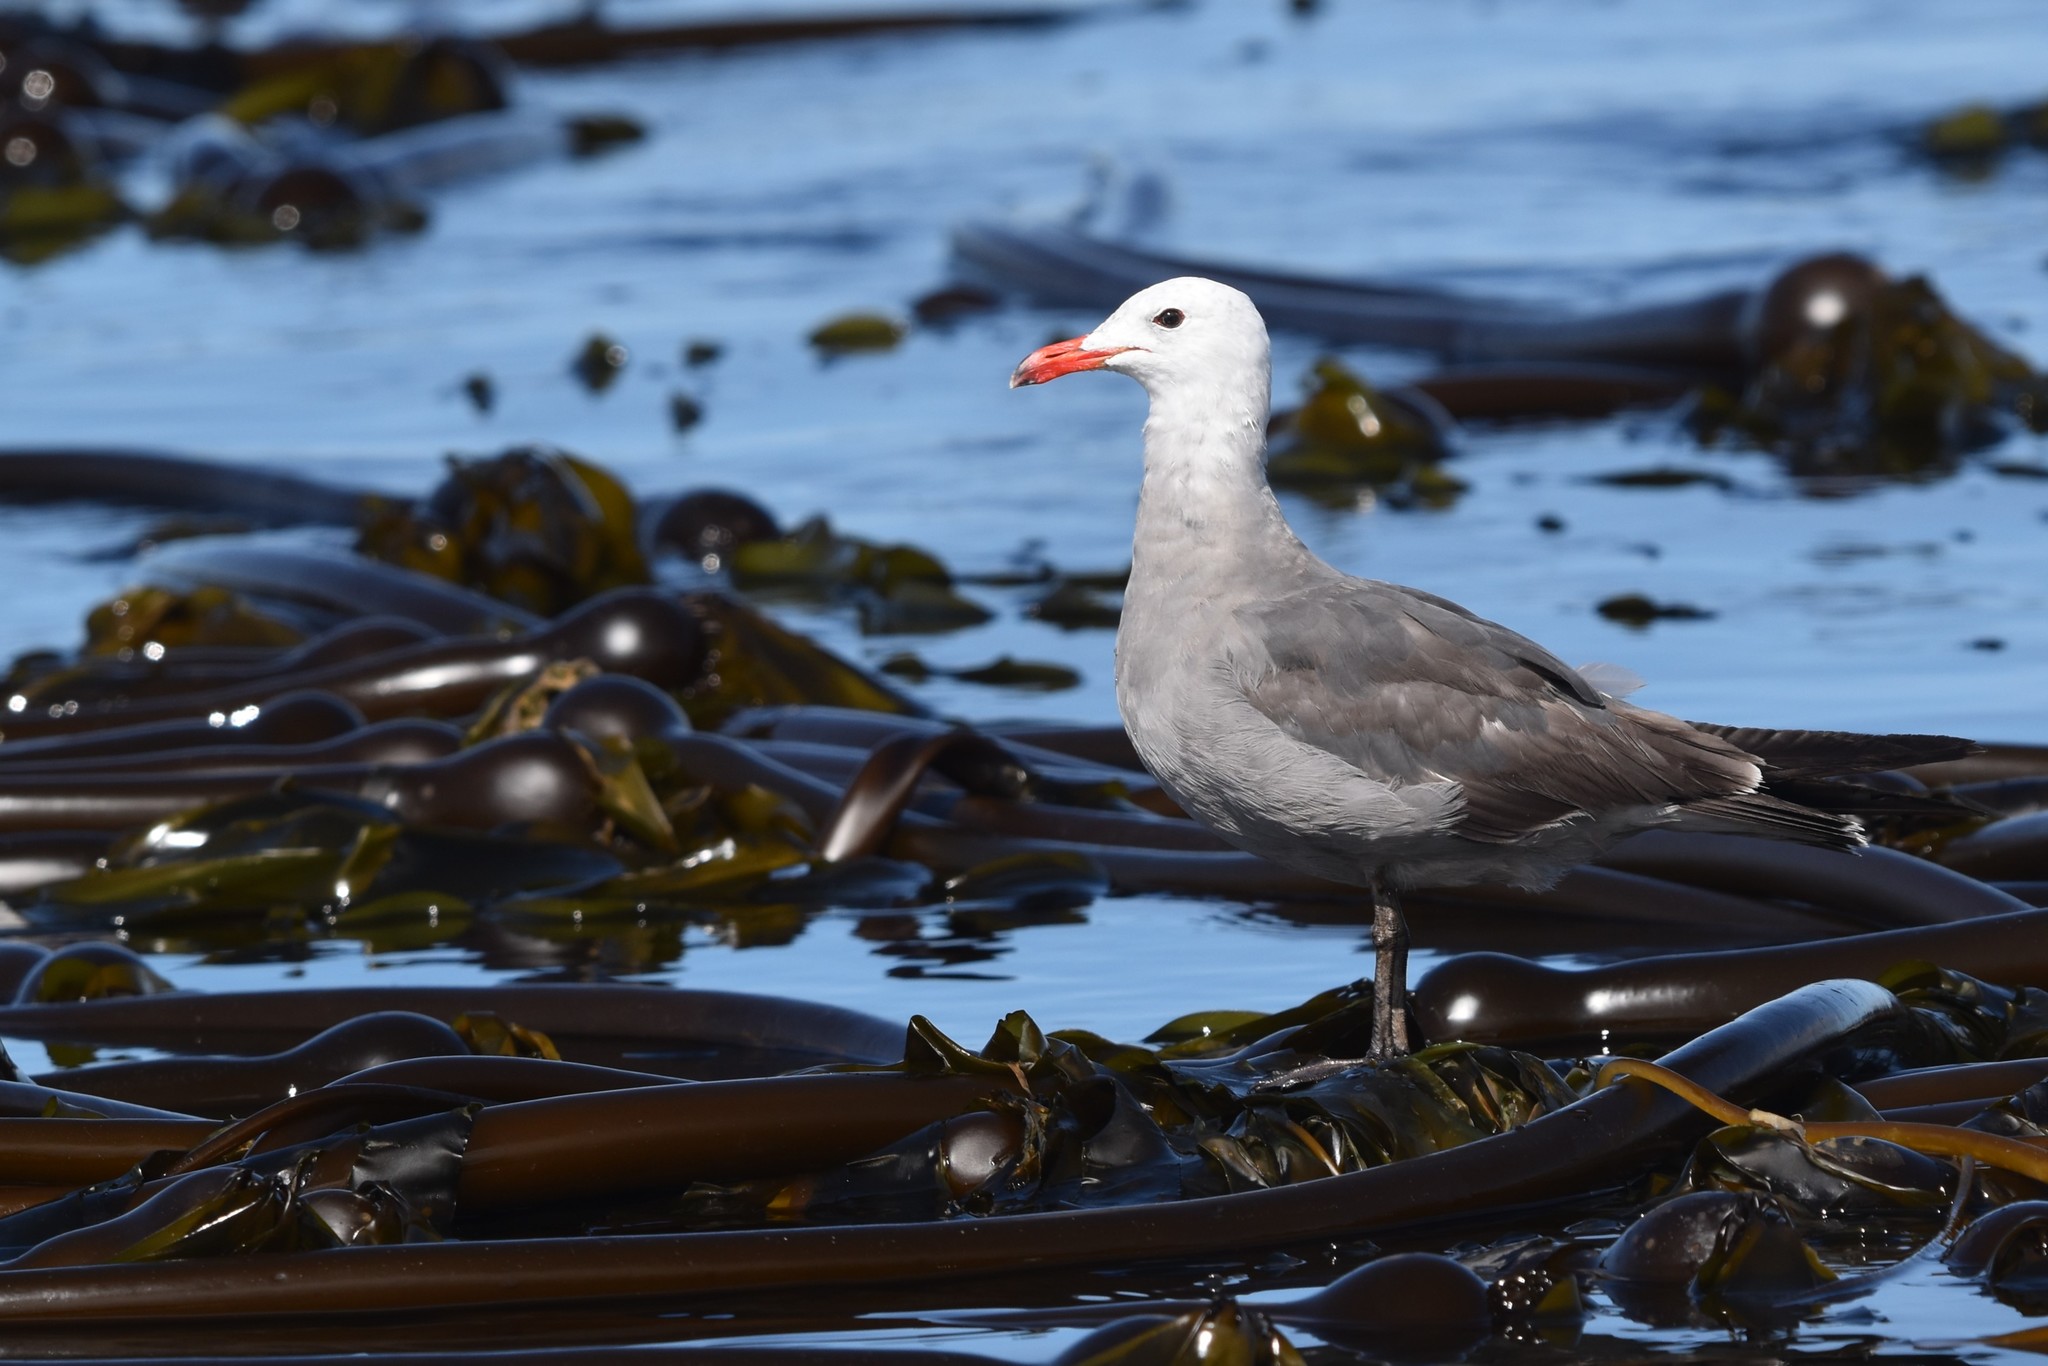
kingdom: Animalia
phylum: Chordata
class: Aves
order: Charadriiformes
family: Laridae
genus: Larus
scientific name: Larus heermanni
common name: Heermann's gull
